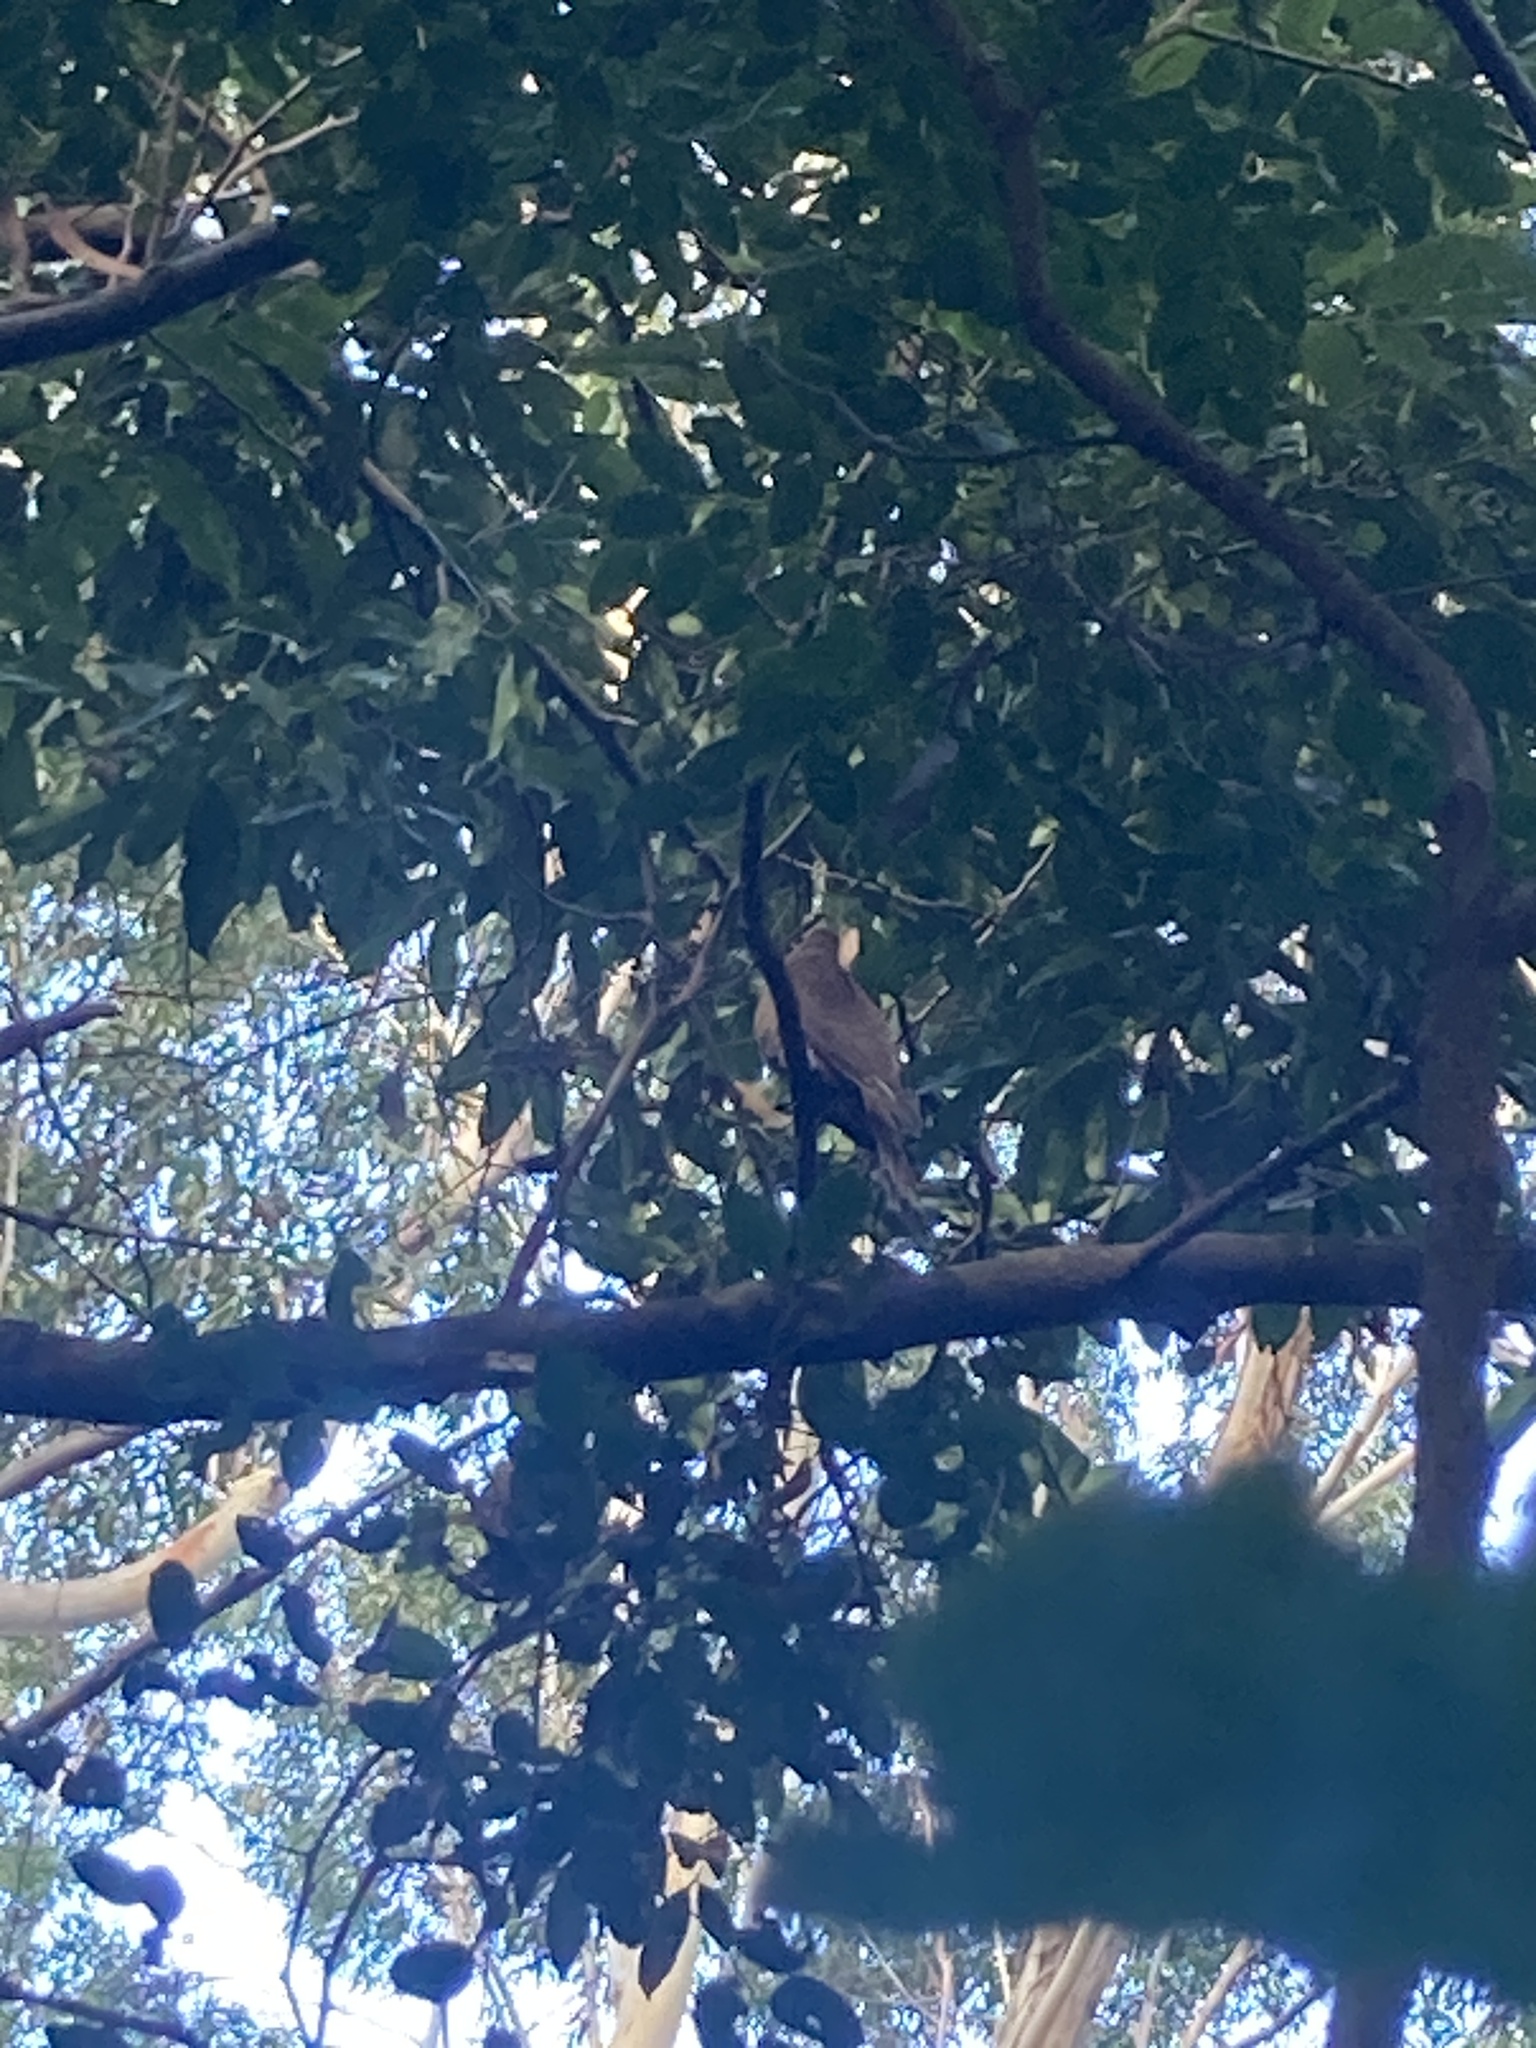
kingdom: Animalia
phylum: Chordata
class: Aves
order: Columbiformes
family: Columbidae
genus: Macropygia
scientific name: Macropygia phasianella
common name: Brown cuckoo-dove
